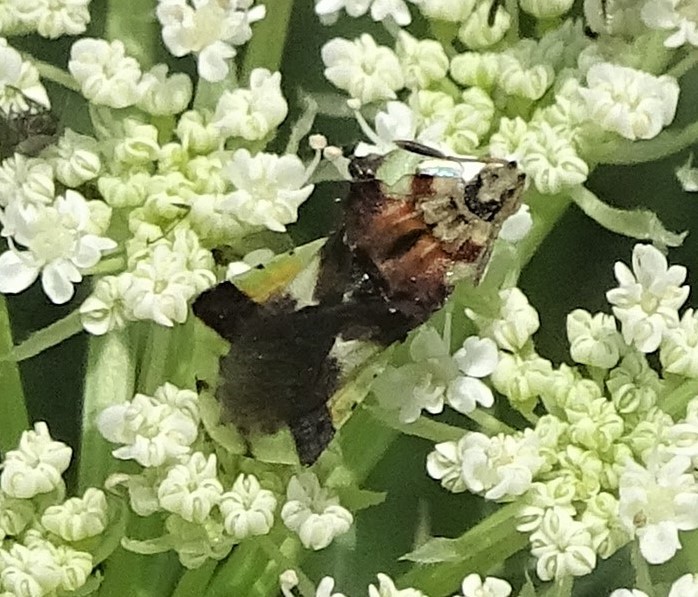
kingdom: Animalia
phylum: Arthropoda
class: Insecta
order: Hemiptera
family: Reduviidae
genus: Phymata
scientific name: Phymata americana
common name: Jagged ambush bug
